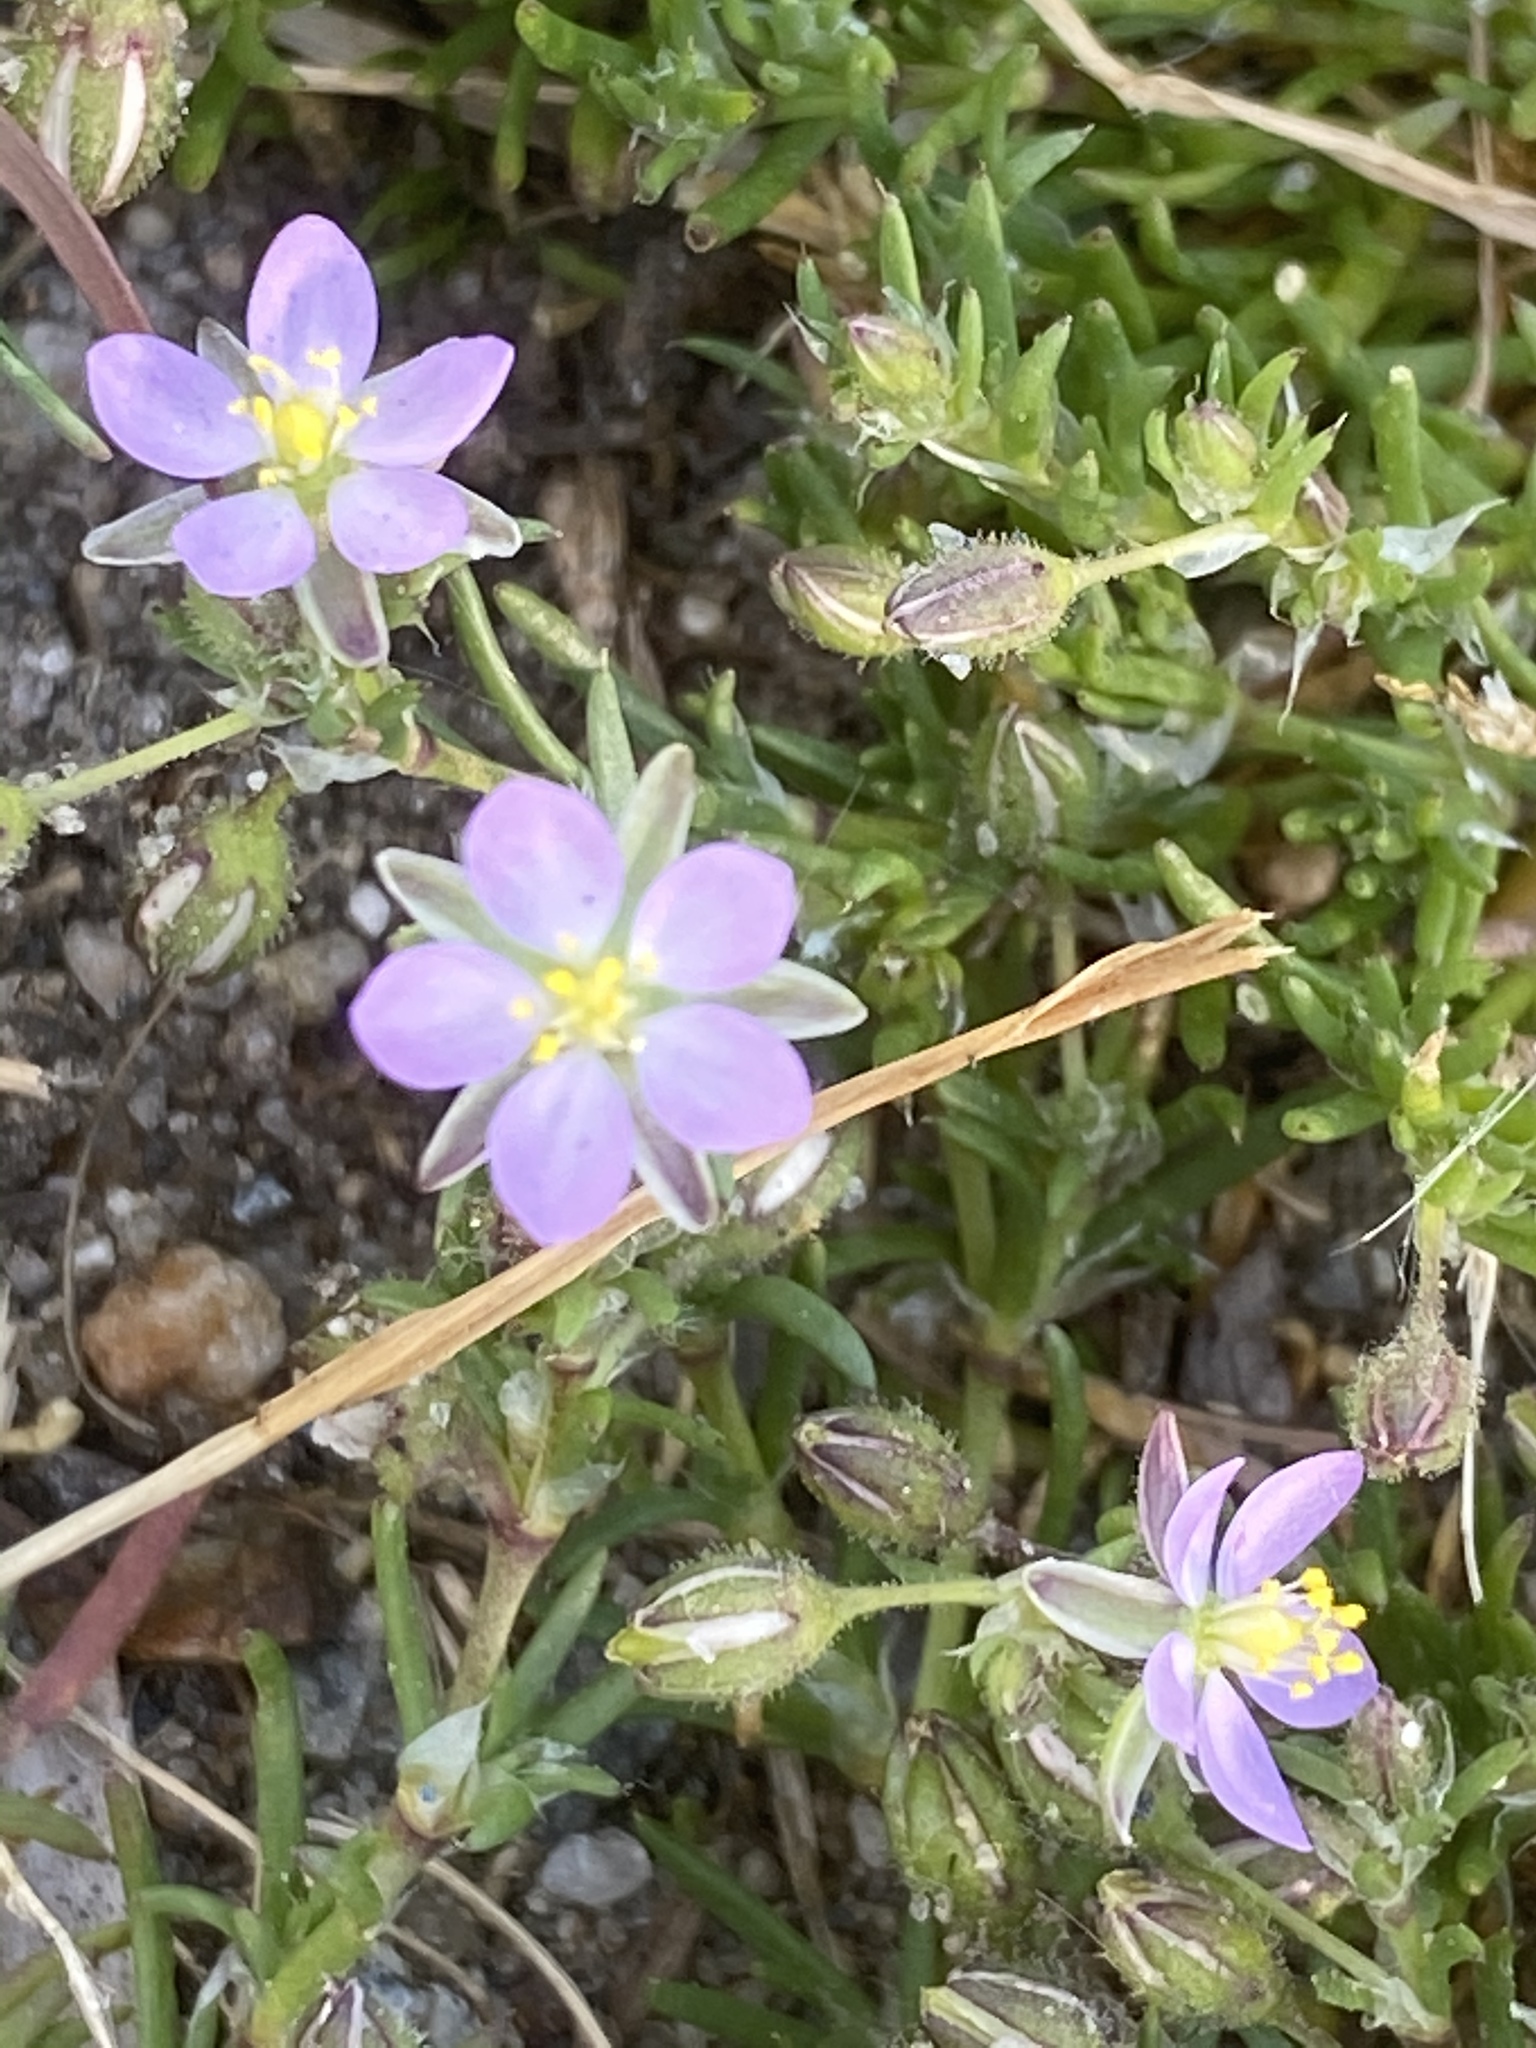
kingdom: Plantae
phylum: Tracheophyta
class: Magnoliopsida
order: Caryophyllales
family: Caryophyllaceae
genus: Spergularia
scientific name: Spergularia rubra
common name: Red sand-spurrey
